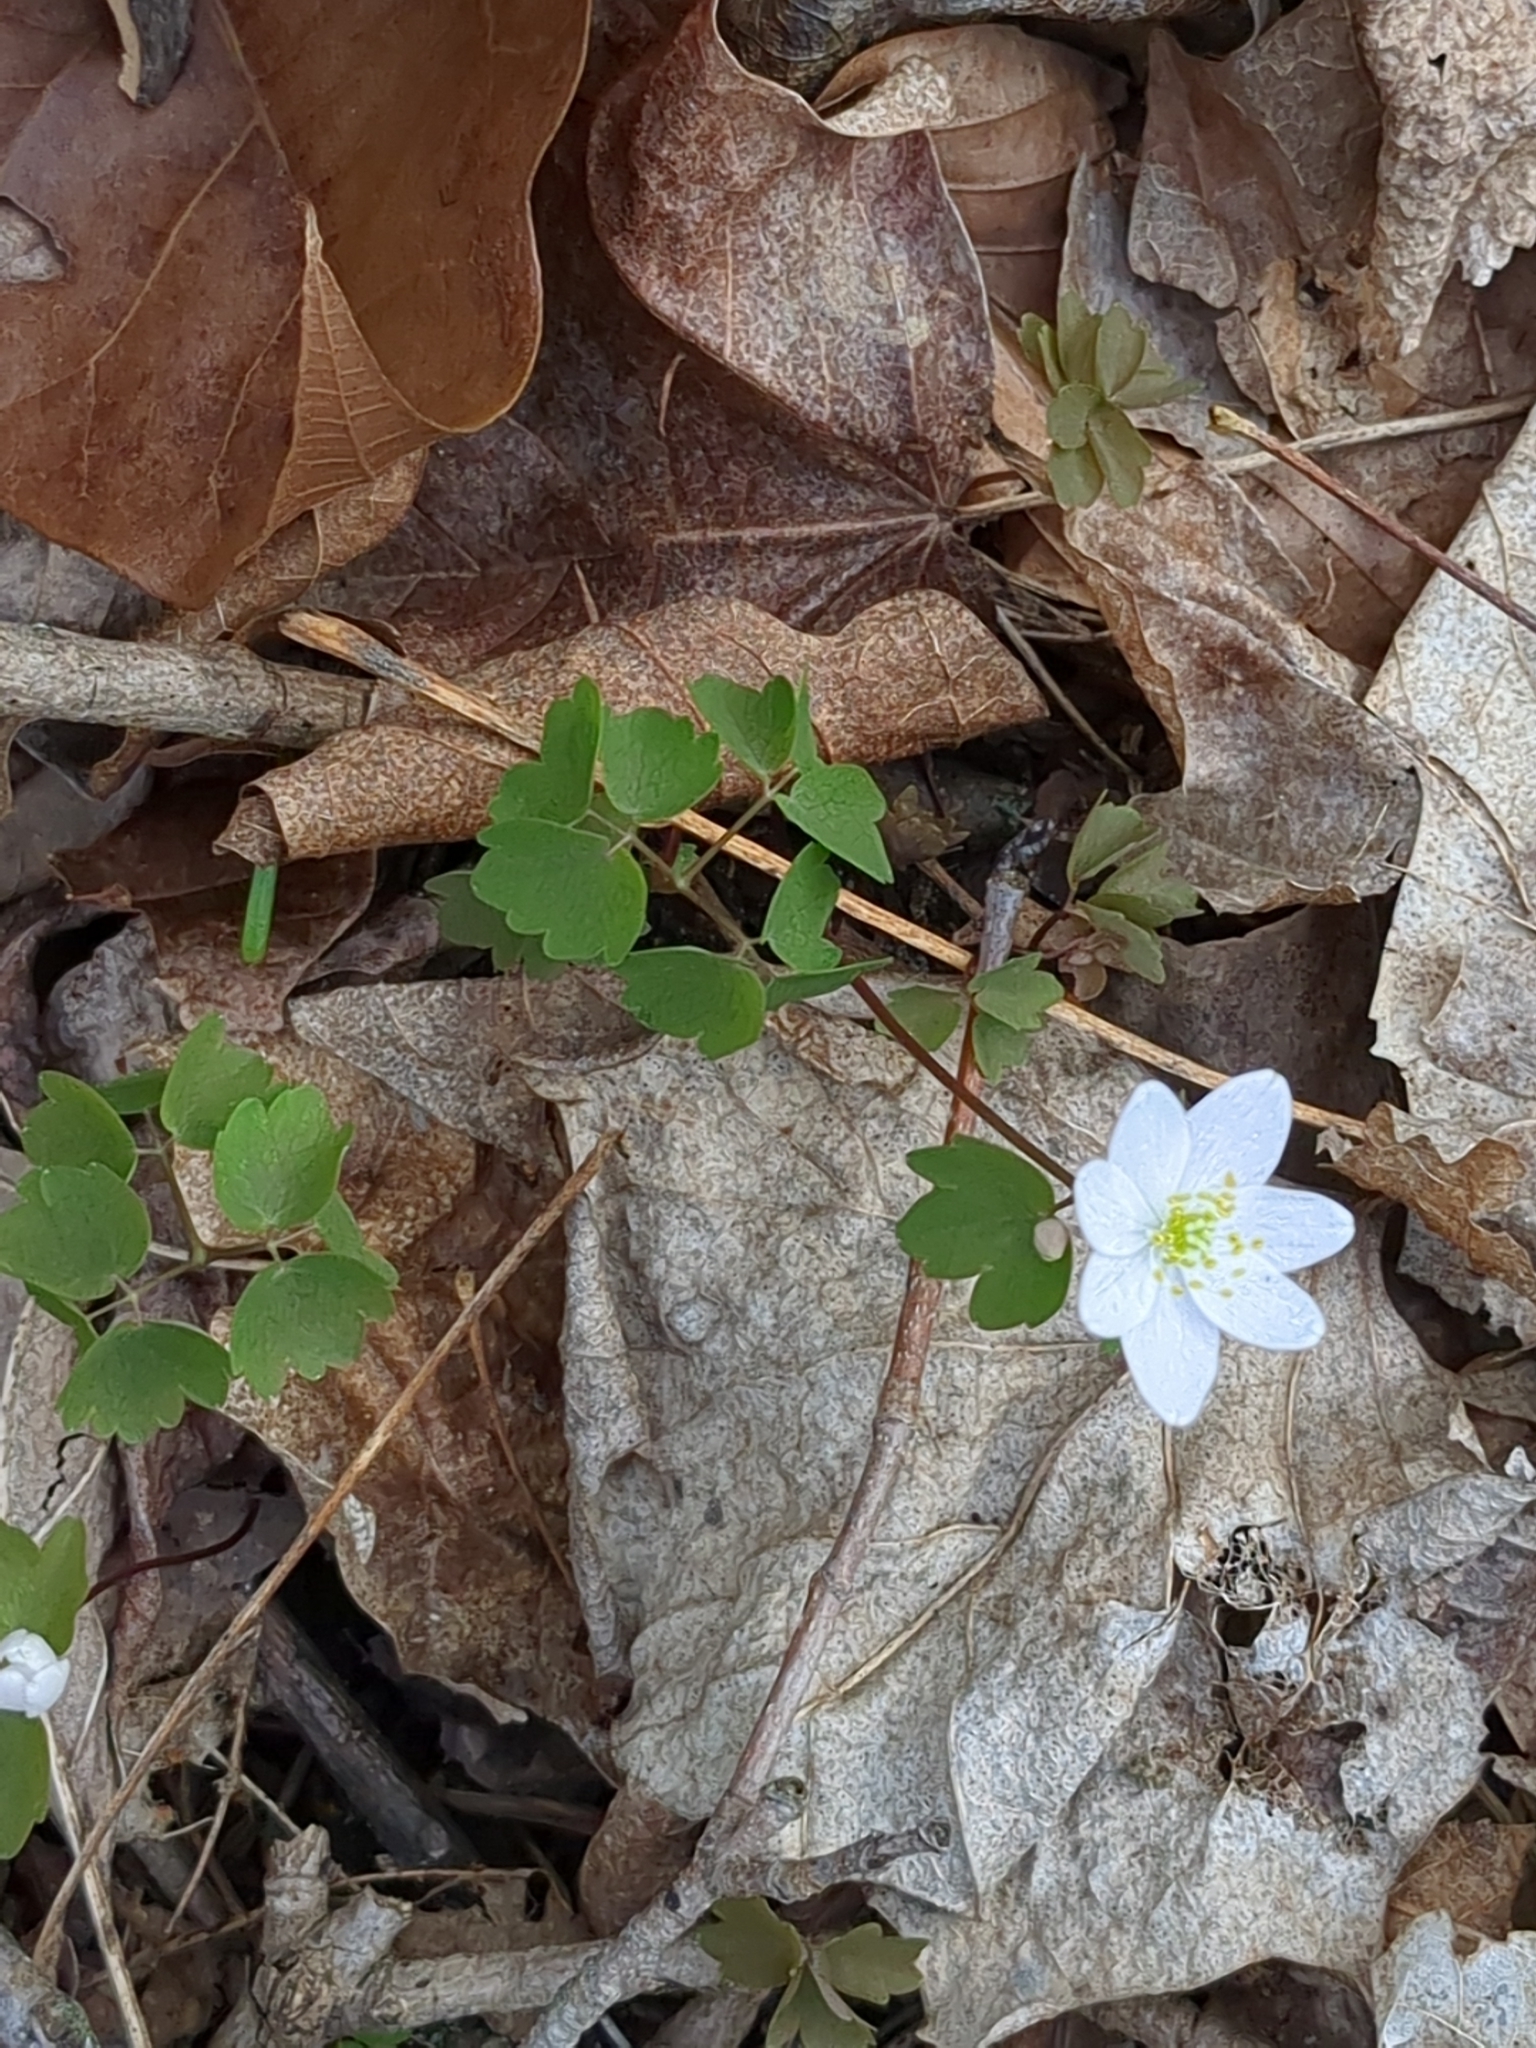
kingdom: Plantae
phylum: Tracheophyta
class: Magnoliopsida
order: Ranunculales
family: Ranunculaceae
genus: Thalictrum
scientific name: Thalictrum thalictroides
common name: Rue-anemone
